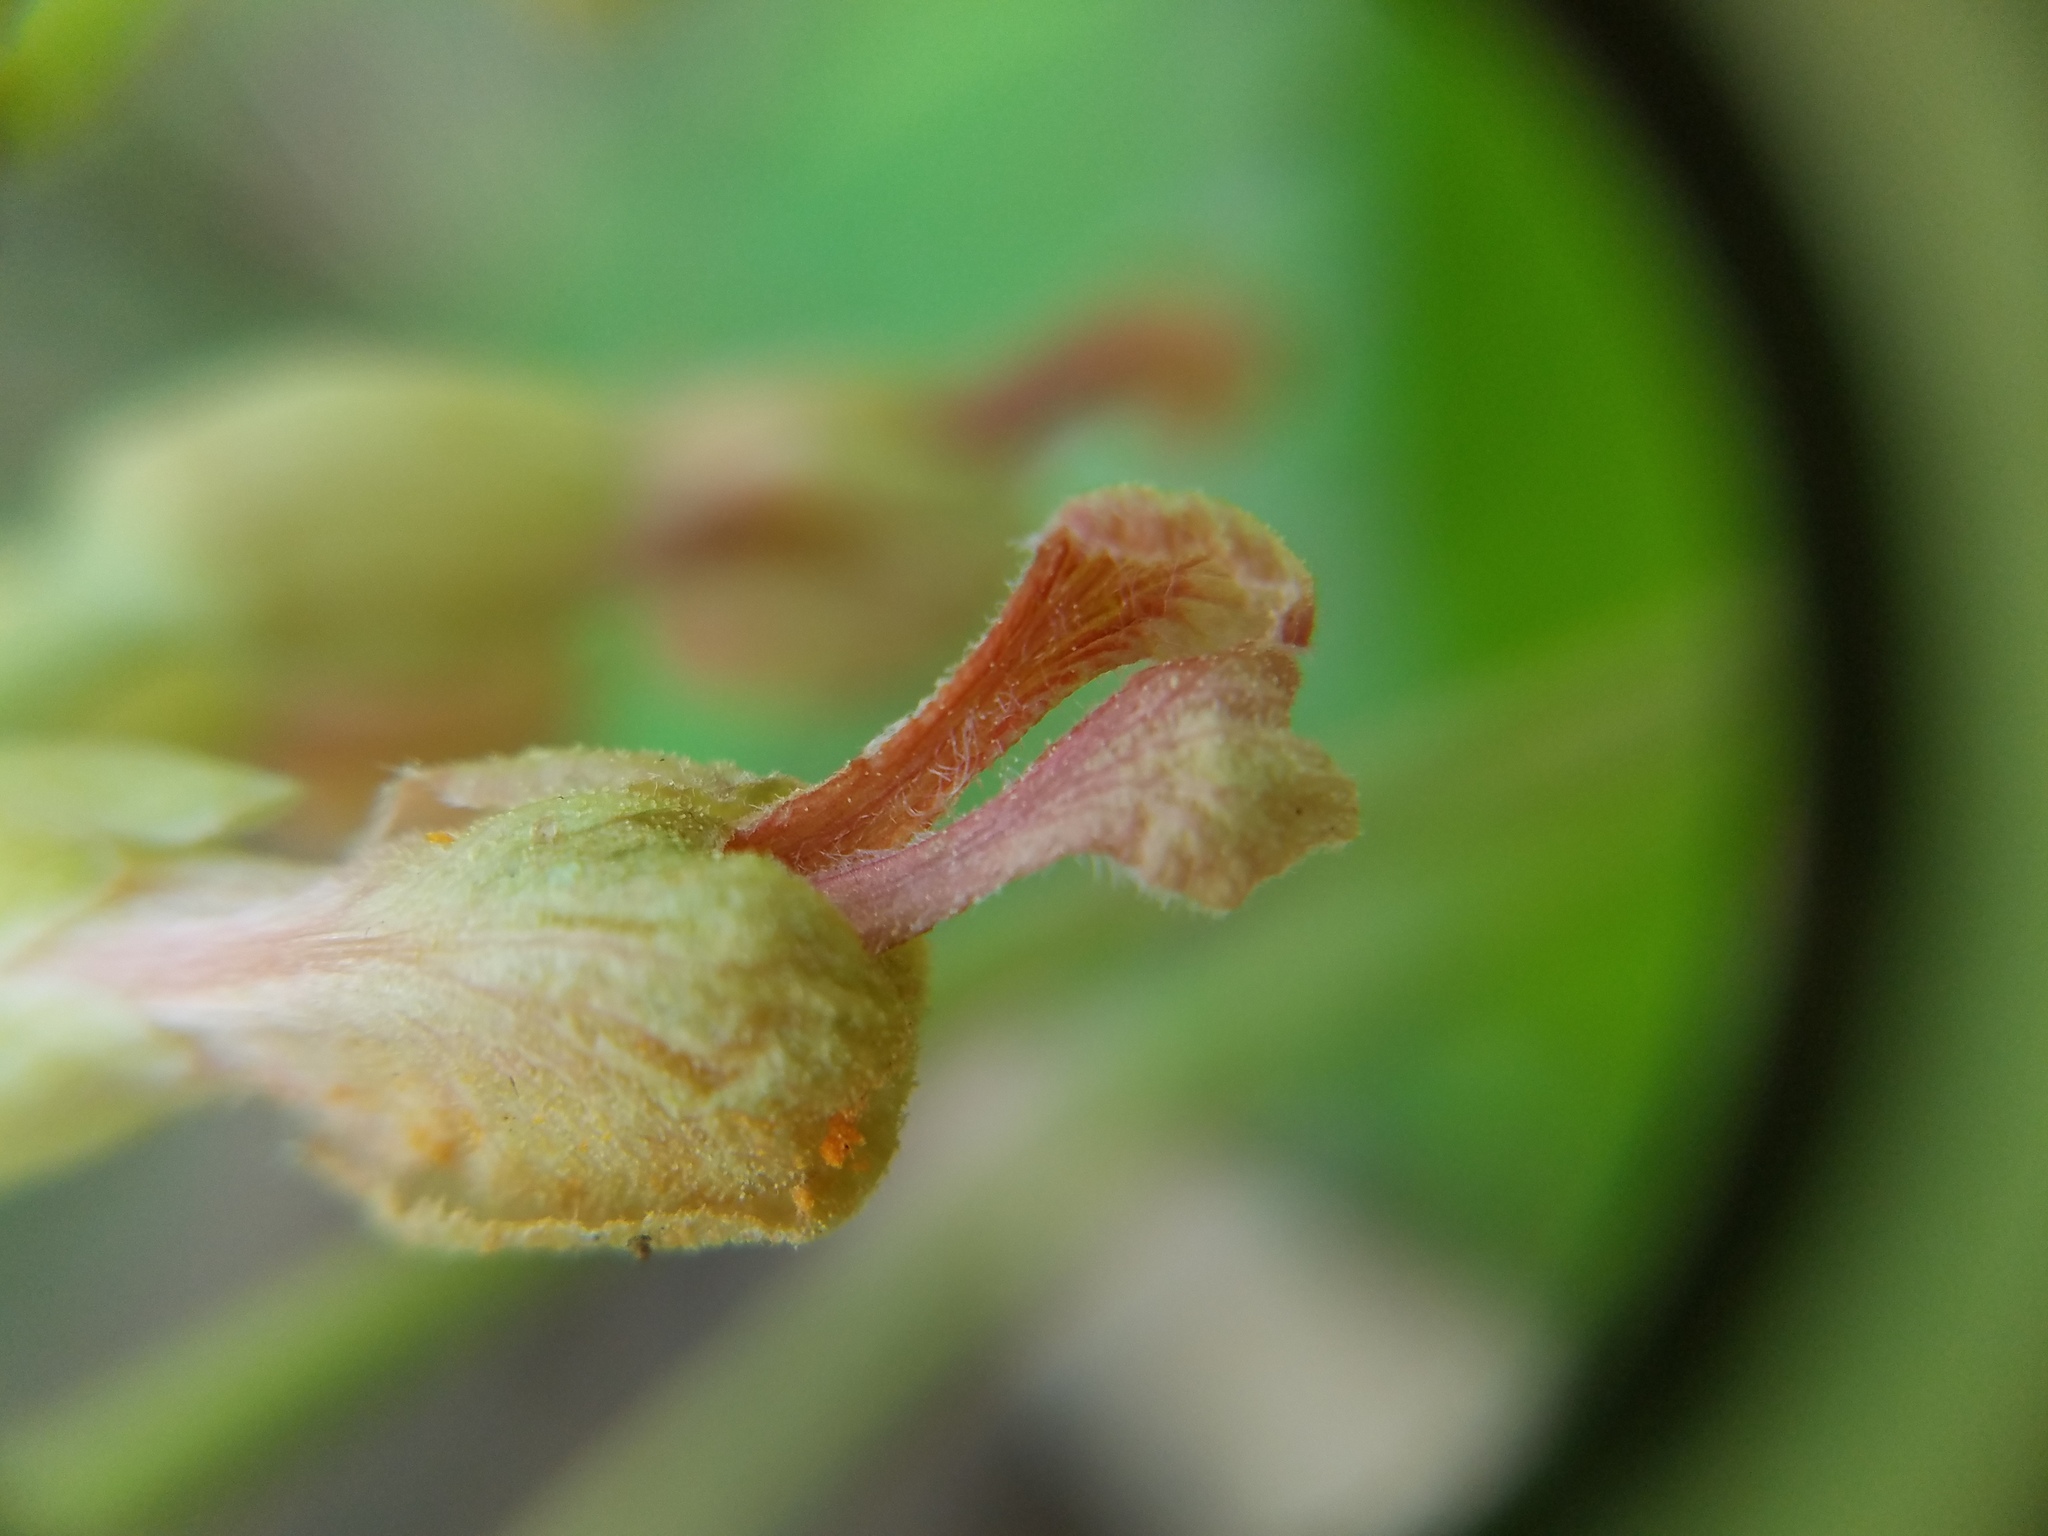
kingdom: Plantae
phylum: Tracheophyta
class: Magnoliopsida
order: Sapindales
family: Sapindaceae
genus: Aesculus
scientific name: Aesculus sylvatica
